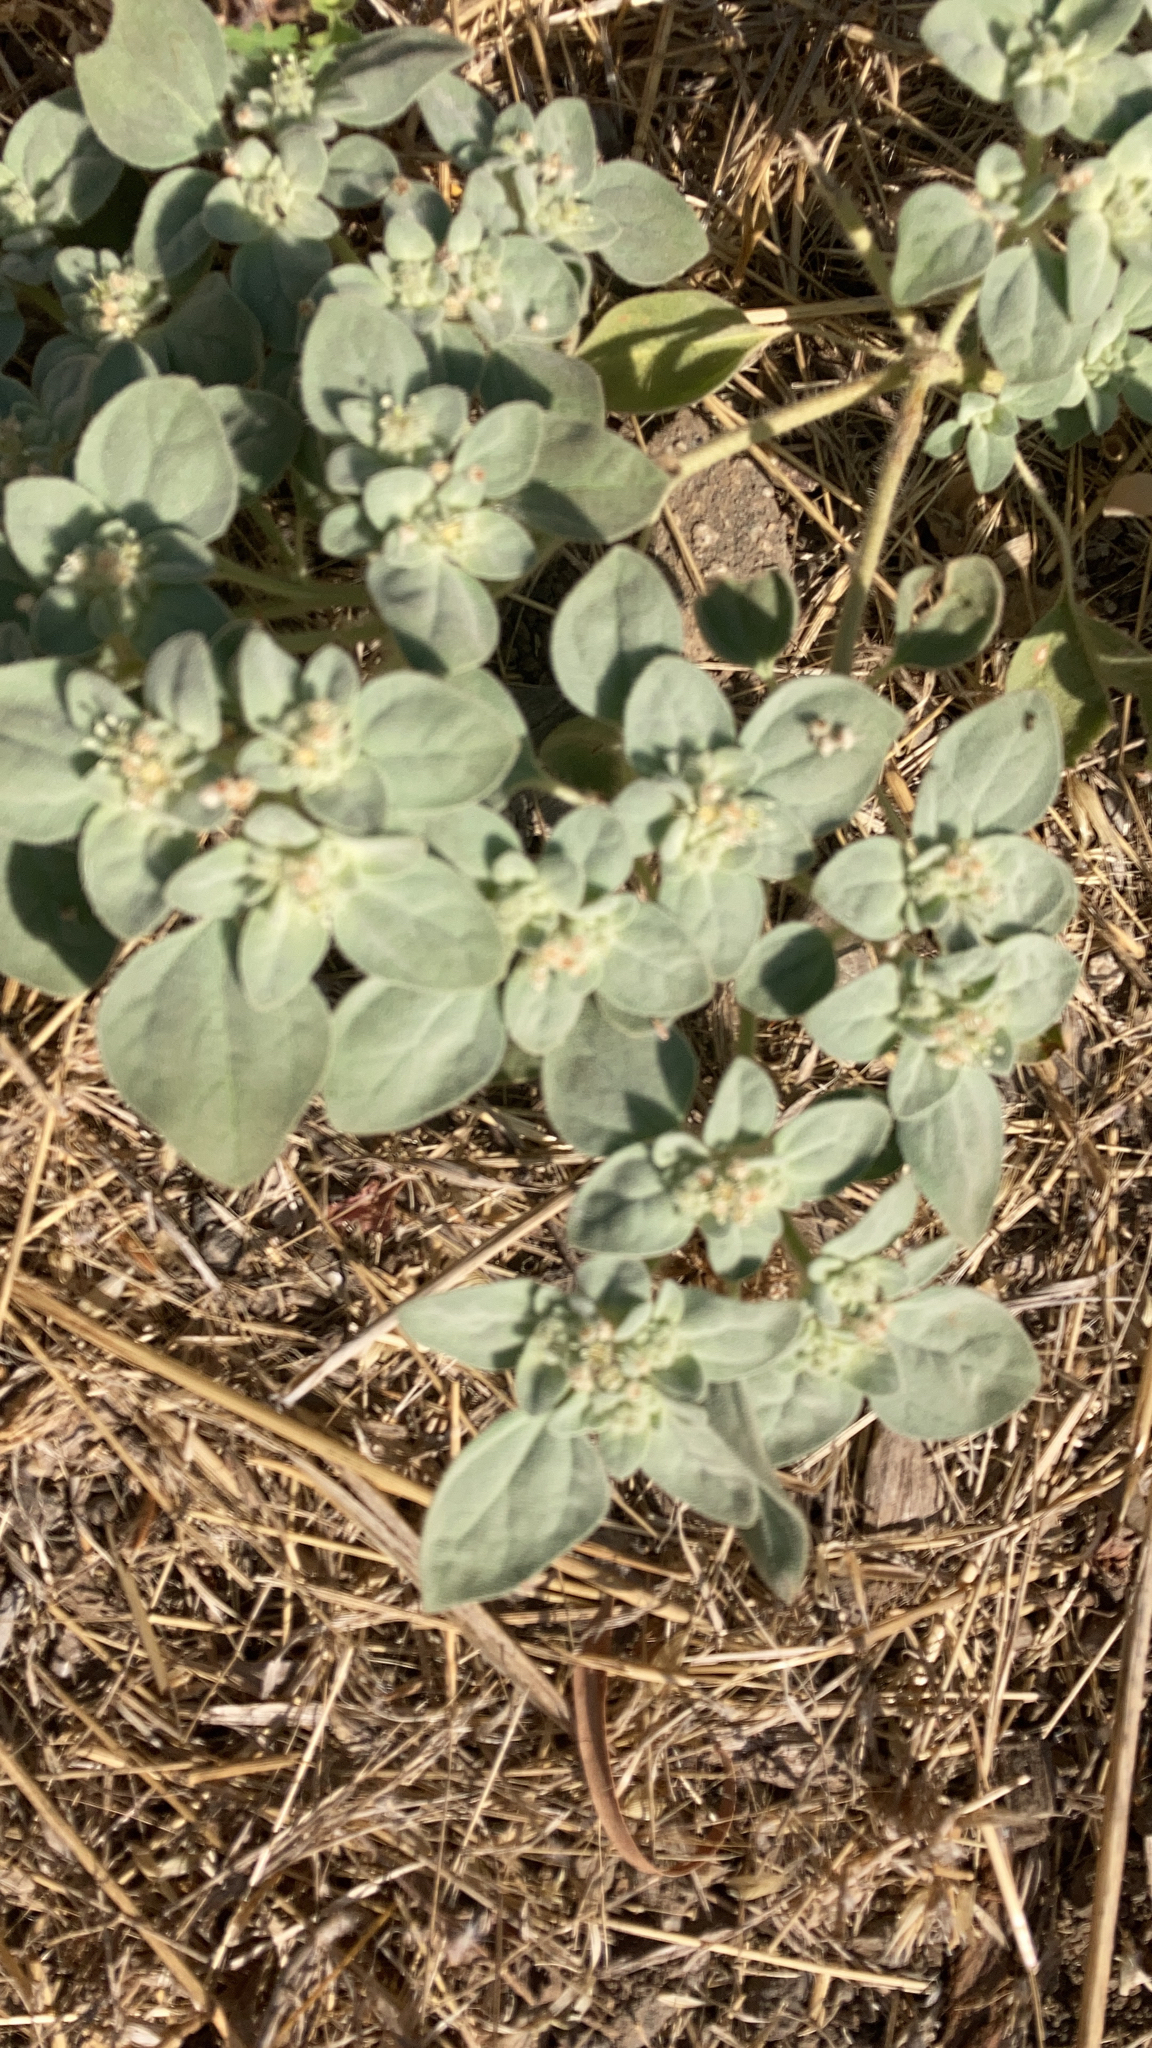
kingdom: Plantae
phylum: Tracheophyta
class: Magnoliopsida
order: Malpighiales
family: Euphorbiaceae
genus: Croton
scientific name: Croton setiger
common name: Dove weed
